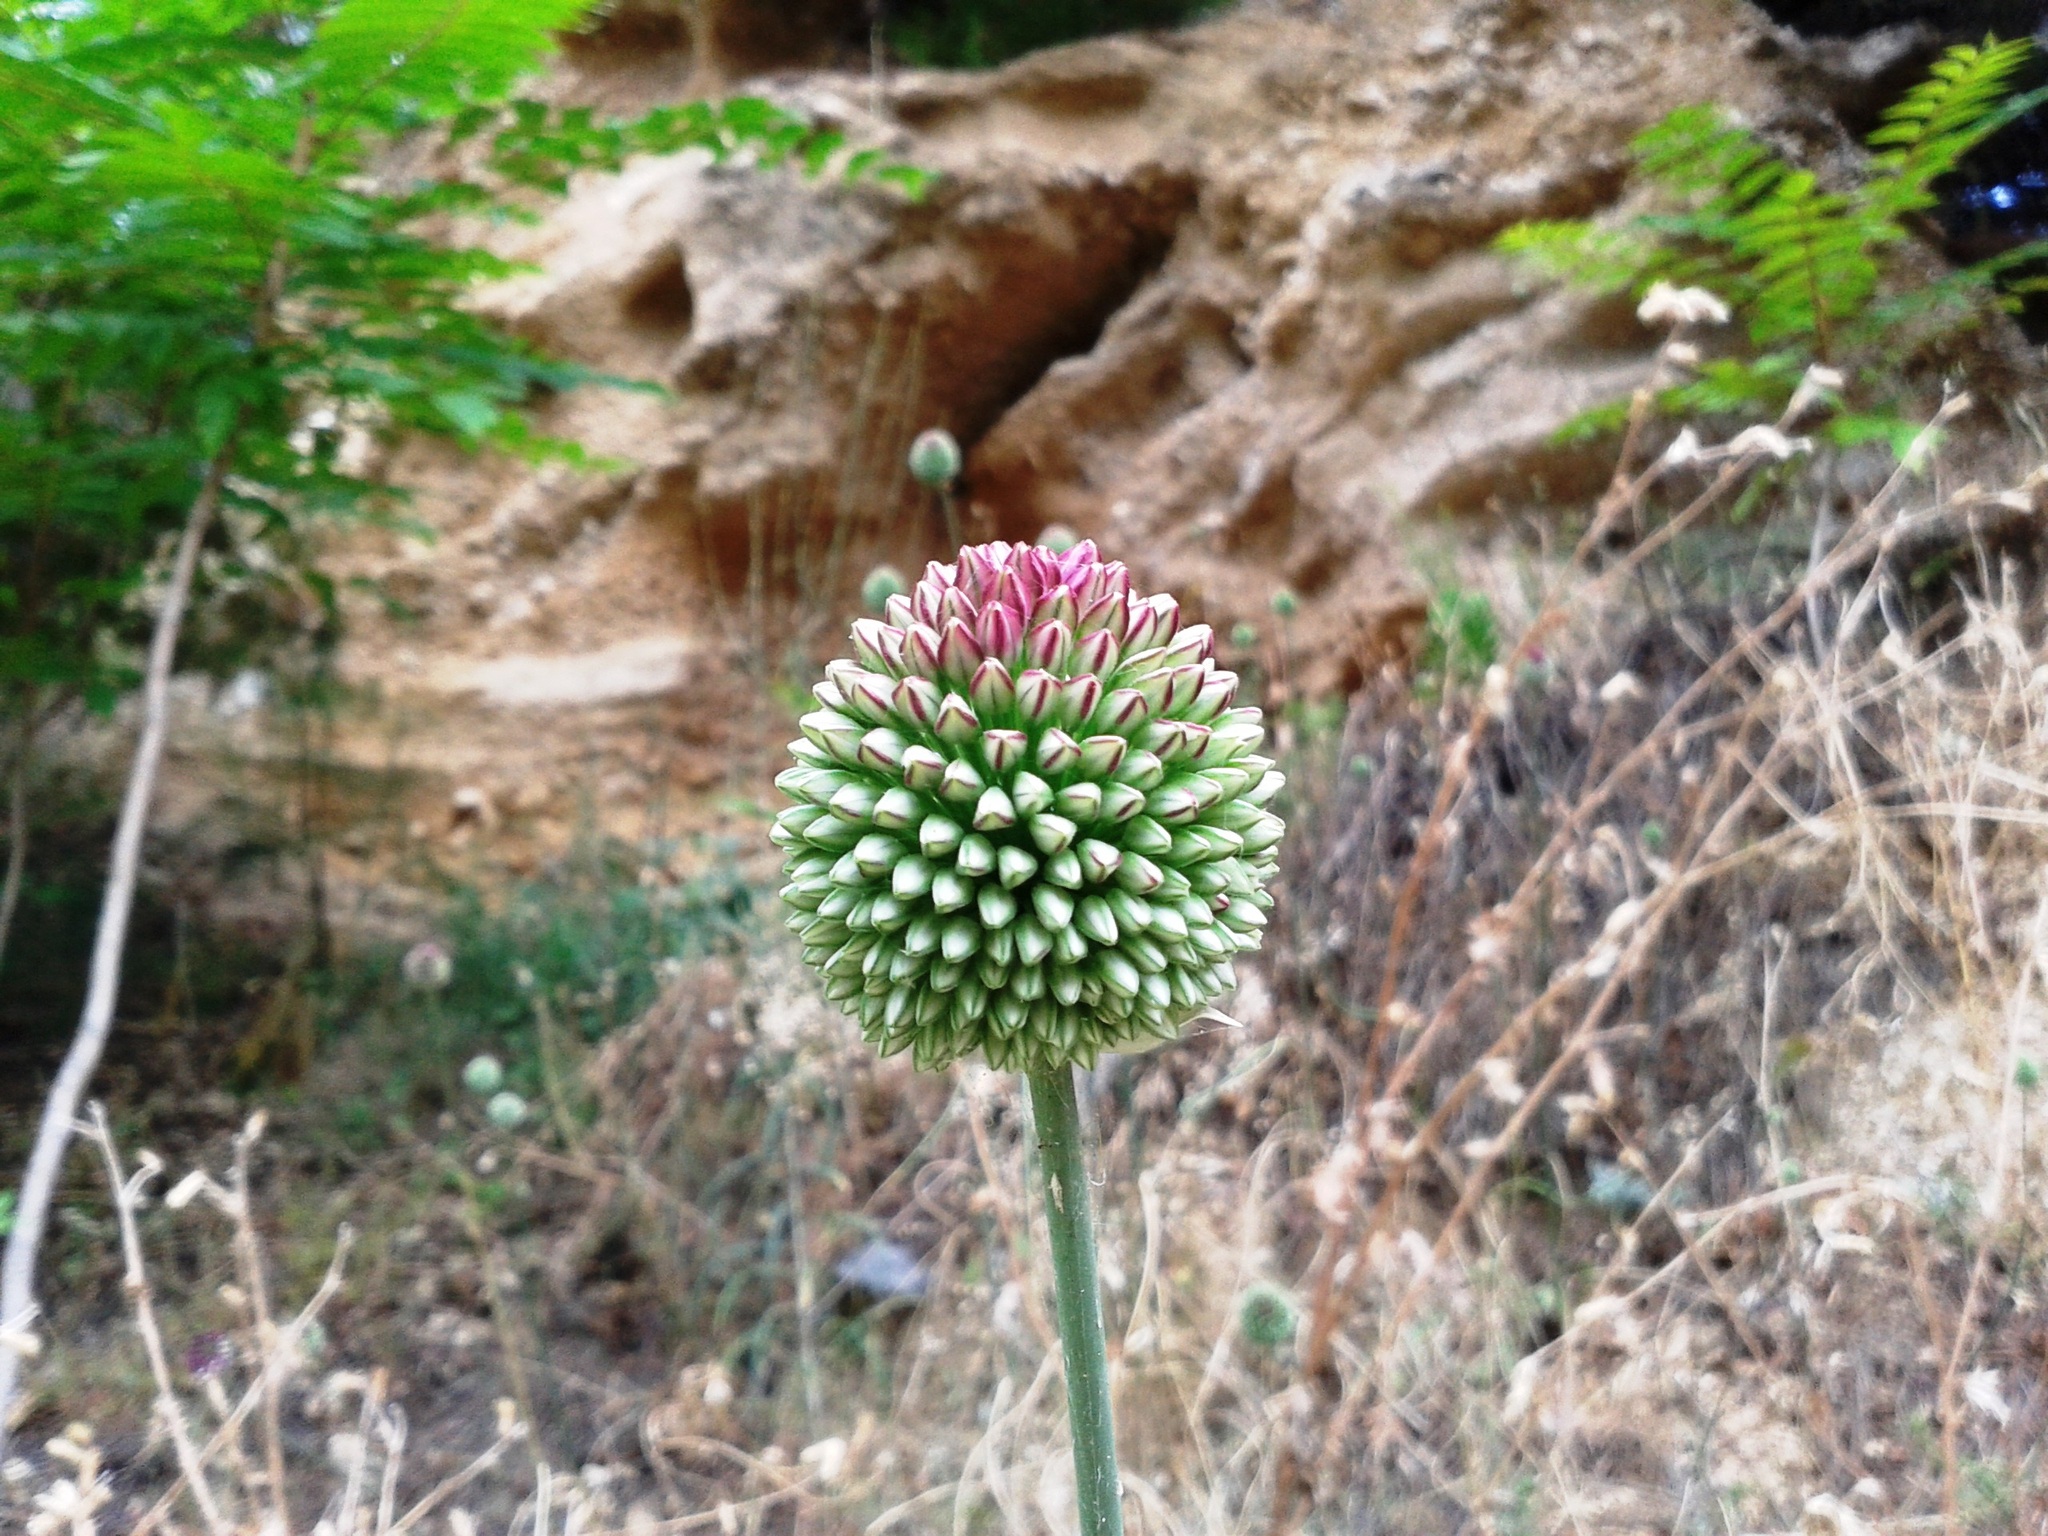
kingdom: Plantae
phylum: Tracheophyta
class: Liliopsida
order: Asparagales
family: Amaryllidaceae
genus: Allium
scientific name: Allium sphaerocephalon
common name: Round-headed leek
